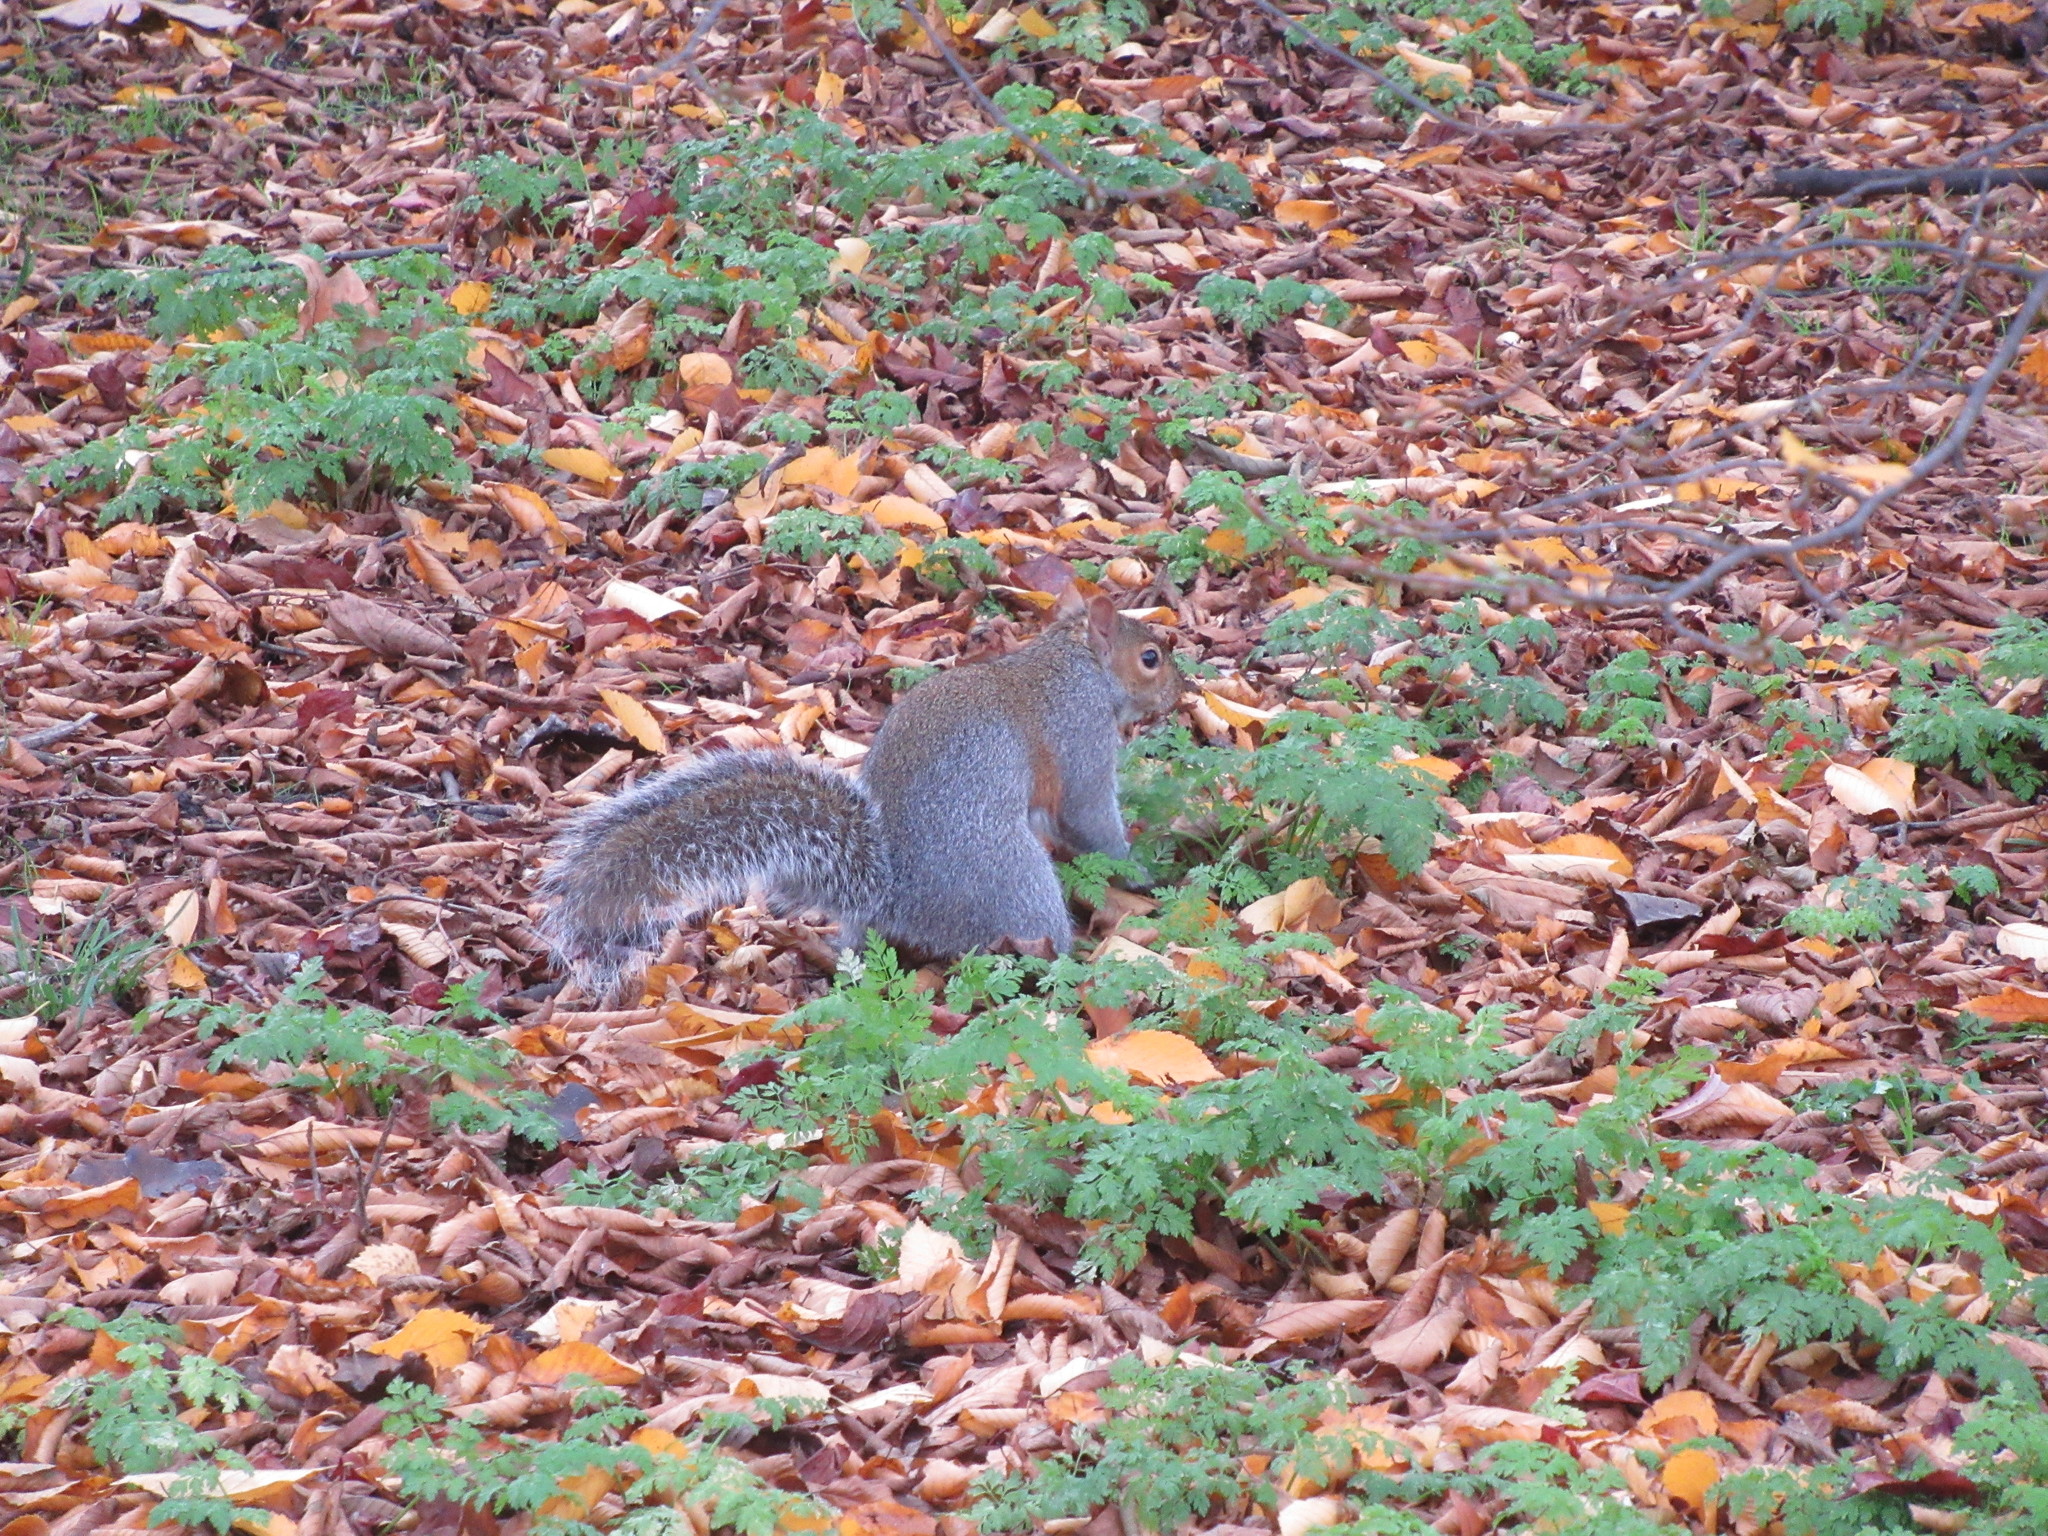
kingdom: Animalia
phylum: Chordata
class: Mammalia
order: Rodentia
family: Sciuridae
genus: Sciurus
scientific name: Sciurus carolinensis
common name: Eastern gray squirrel
